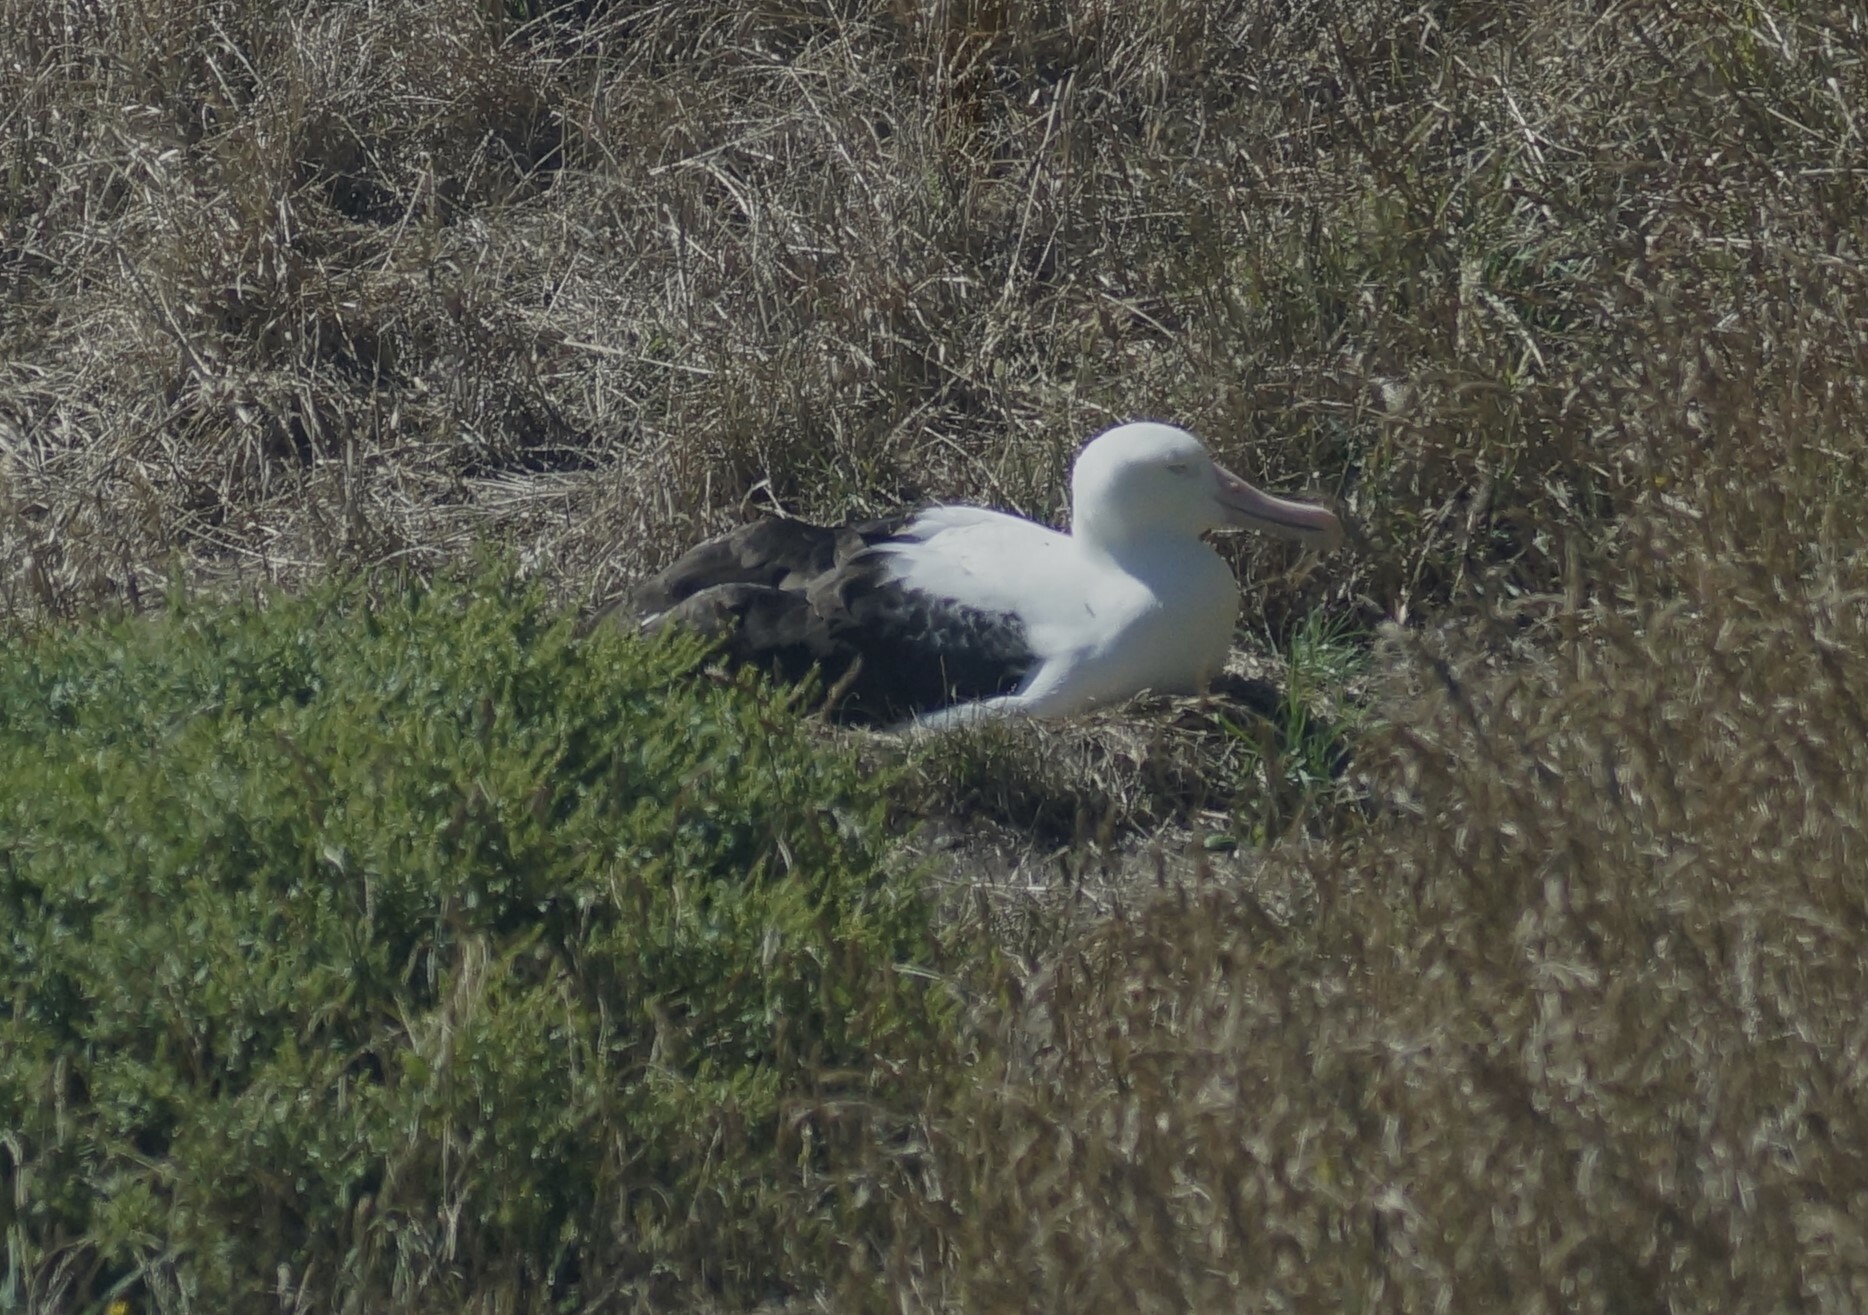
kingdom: Animalia
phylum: Chordata
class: Aves
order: Procellariiformes
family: Diomedeidae
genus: Diomedea
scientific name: Diomedea sanfordi
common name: Northern royal albatross
